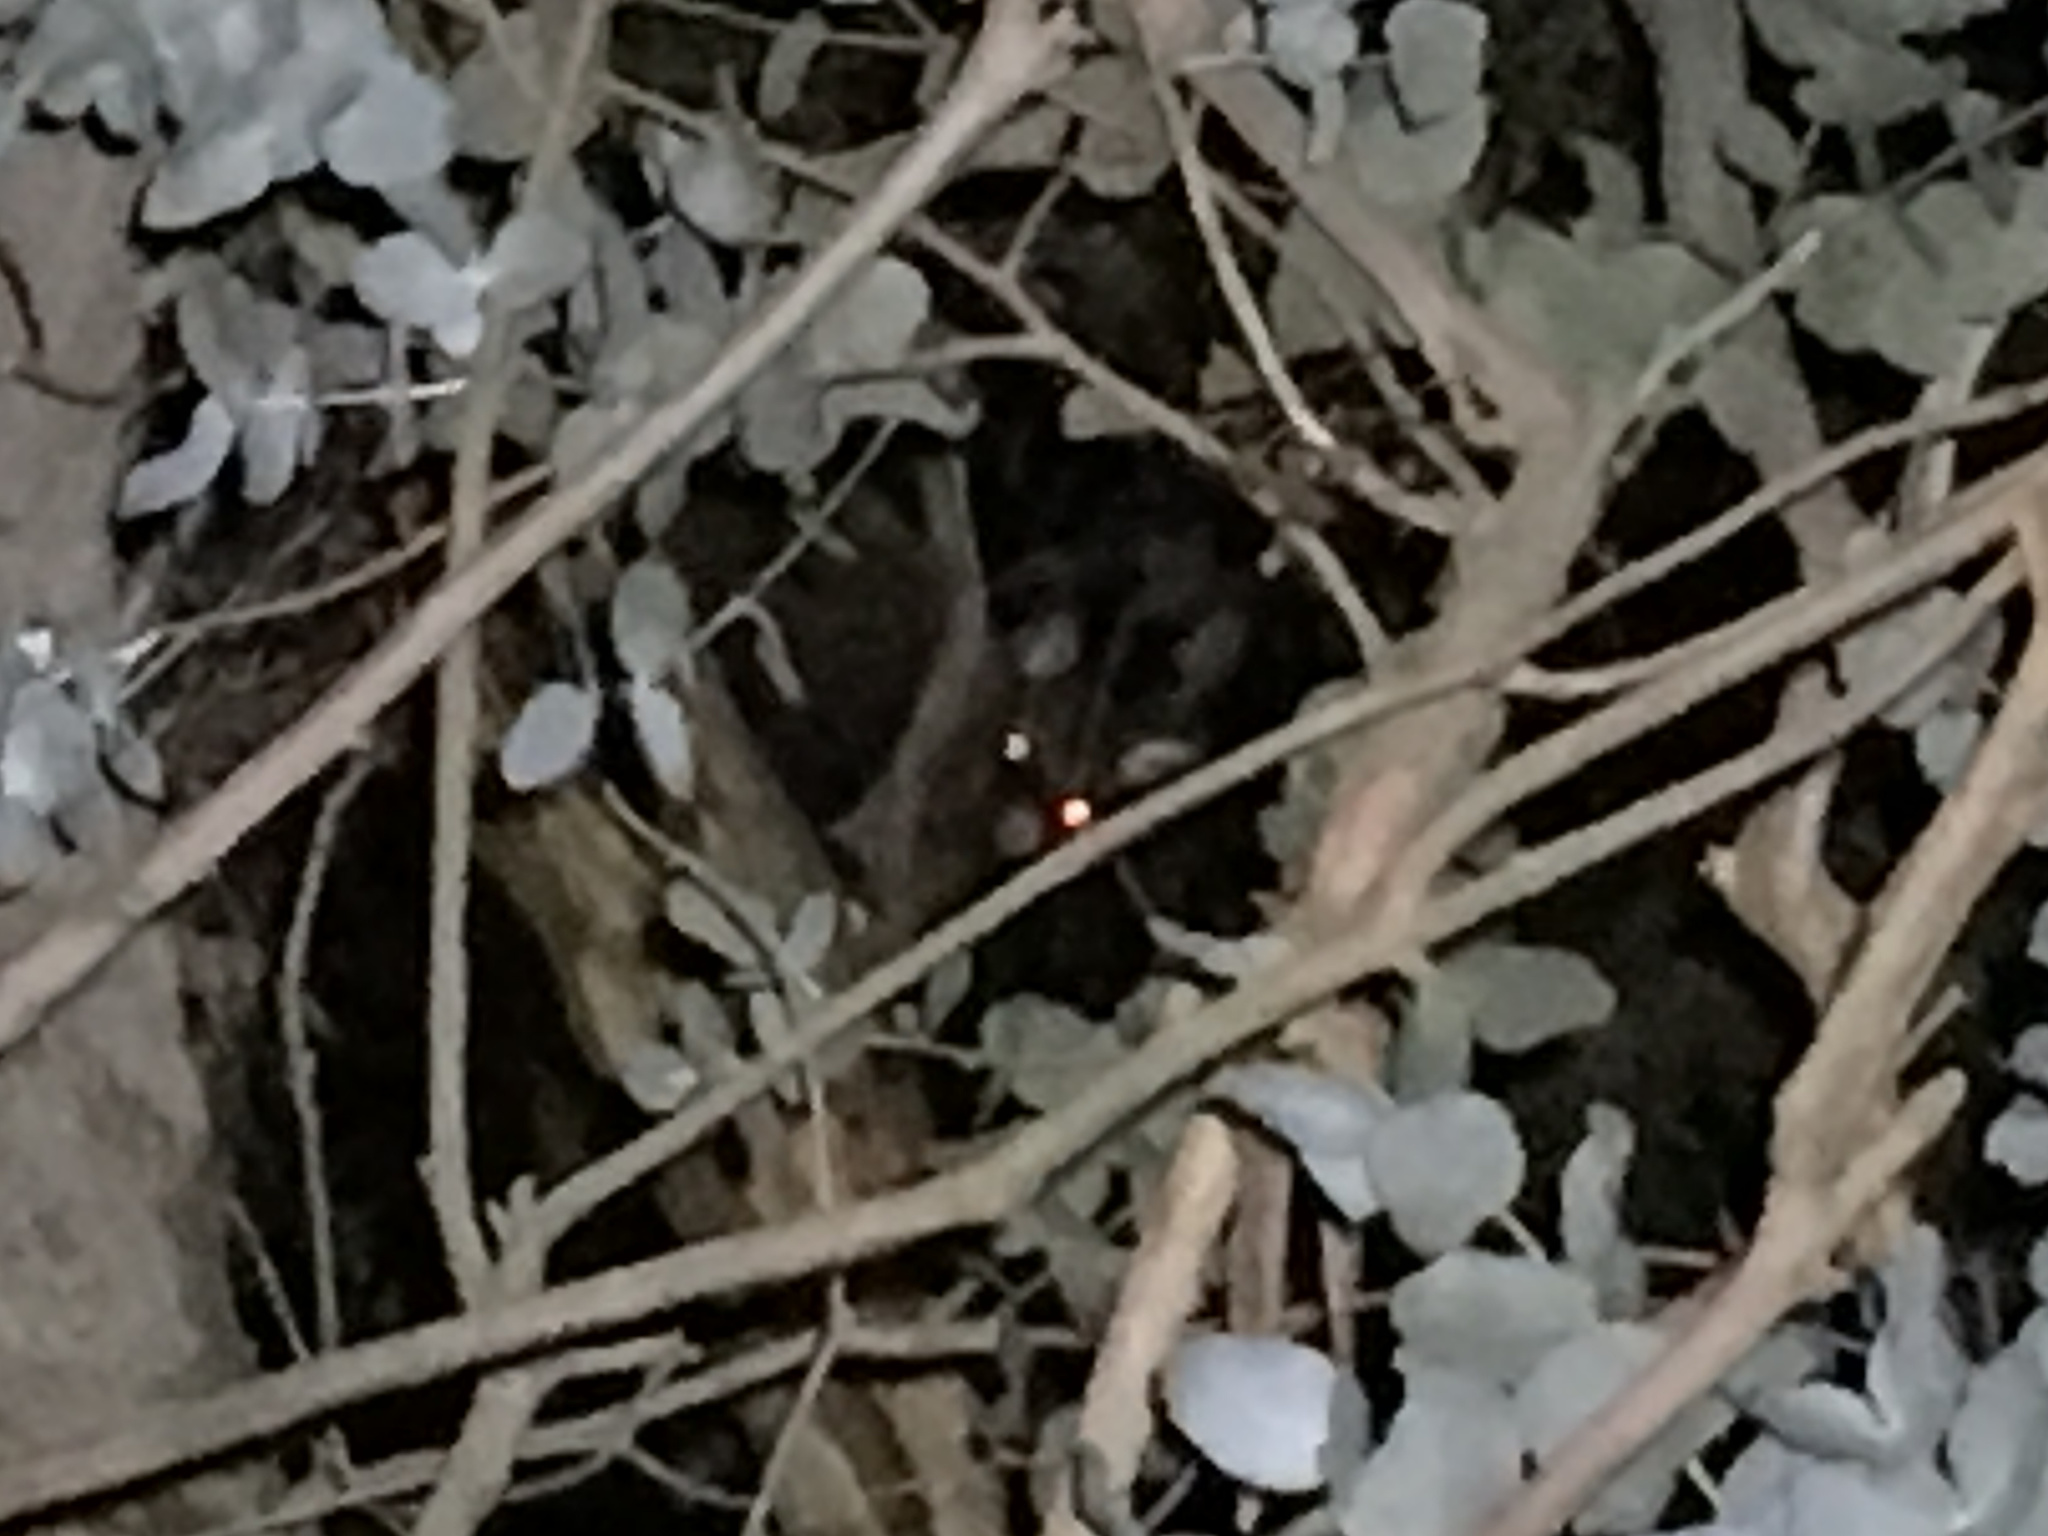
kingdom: Animalia
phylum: Chordata
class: Mammalia
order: Diprotodontia
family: Phalangeridae
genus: Trichosurus
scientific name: Trichosurus vulpecula
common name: Common brushtail
